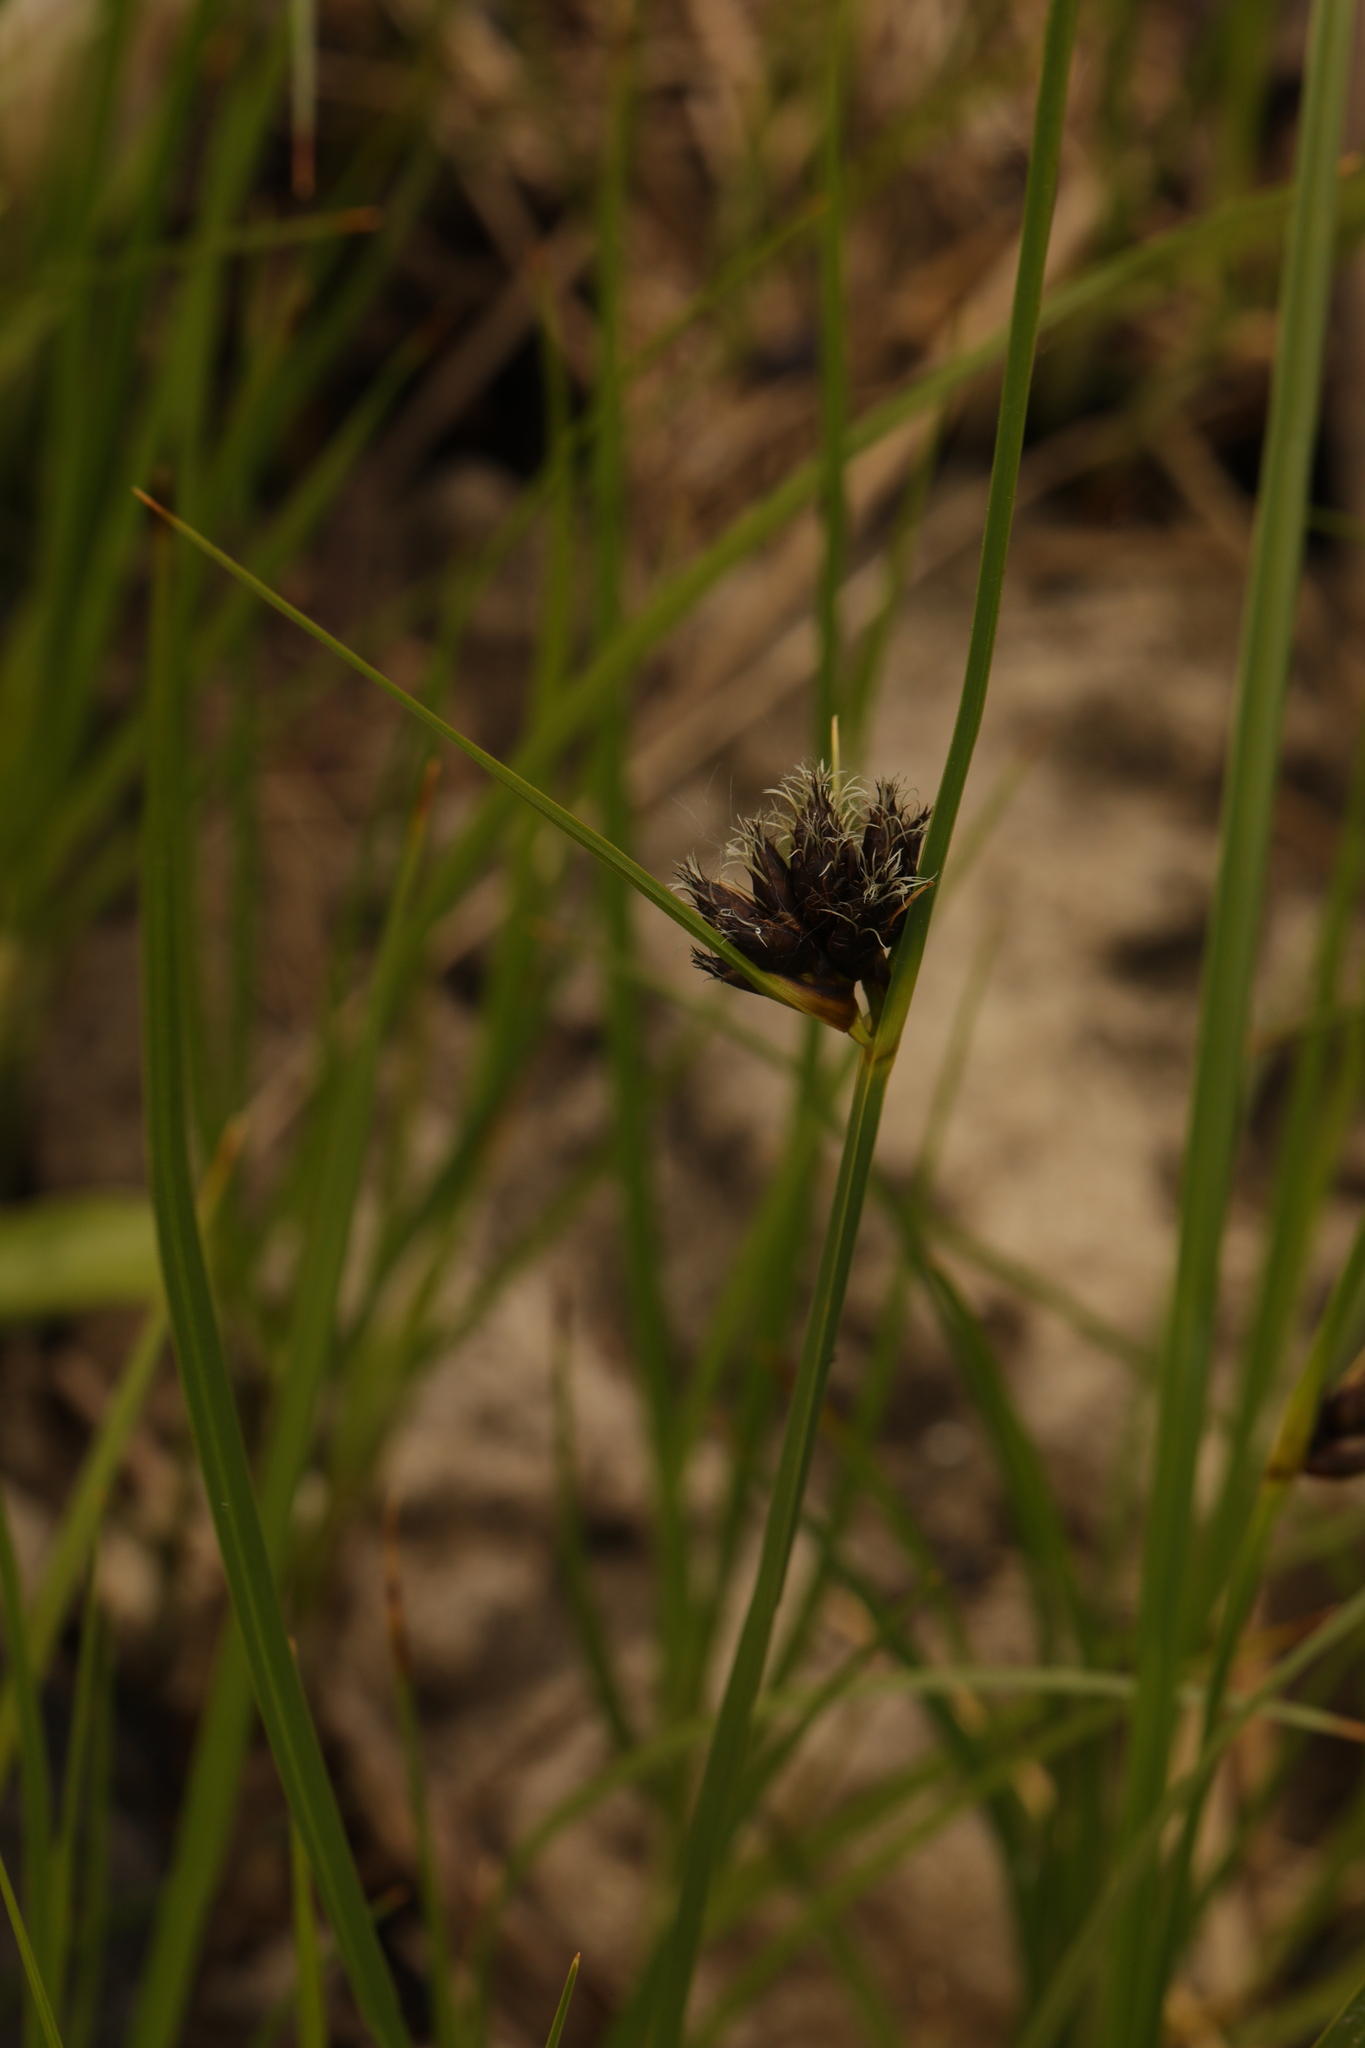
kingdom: Plantae
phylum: Tracheophyta
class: Liliopsida
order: Poales
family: Cyperaceae
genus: Bolboschoenus
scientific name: Bolboschoenus maritimus
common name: Sea club-rush
